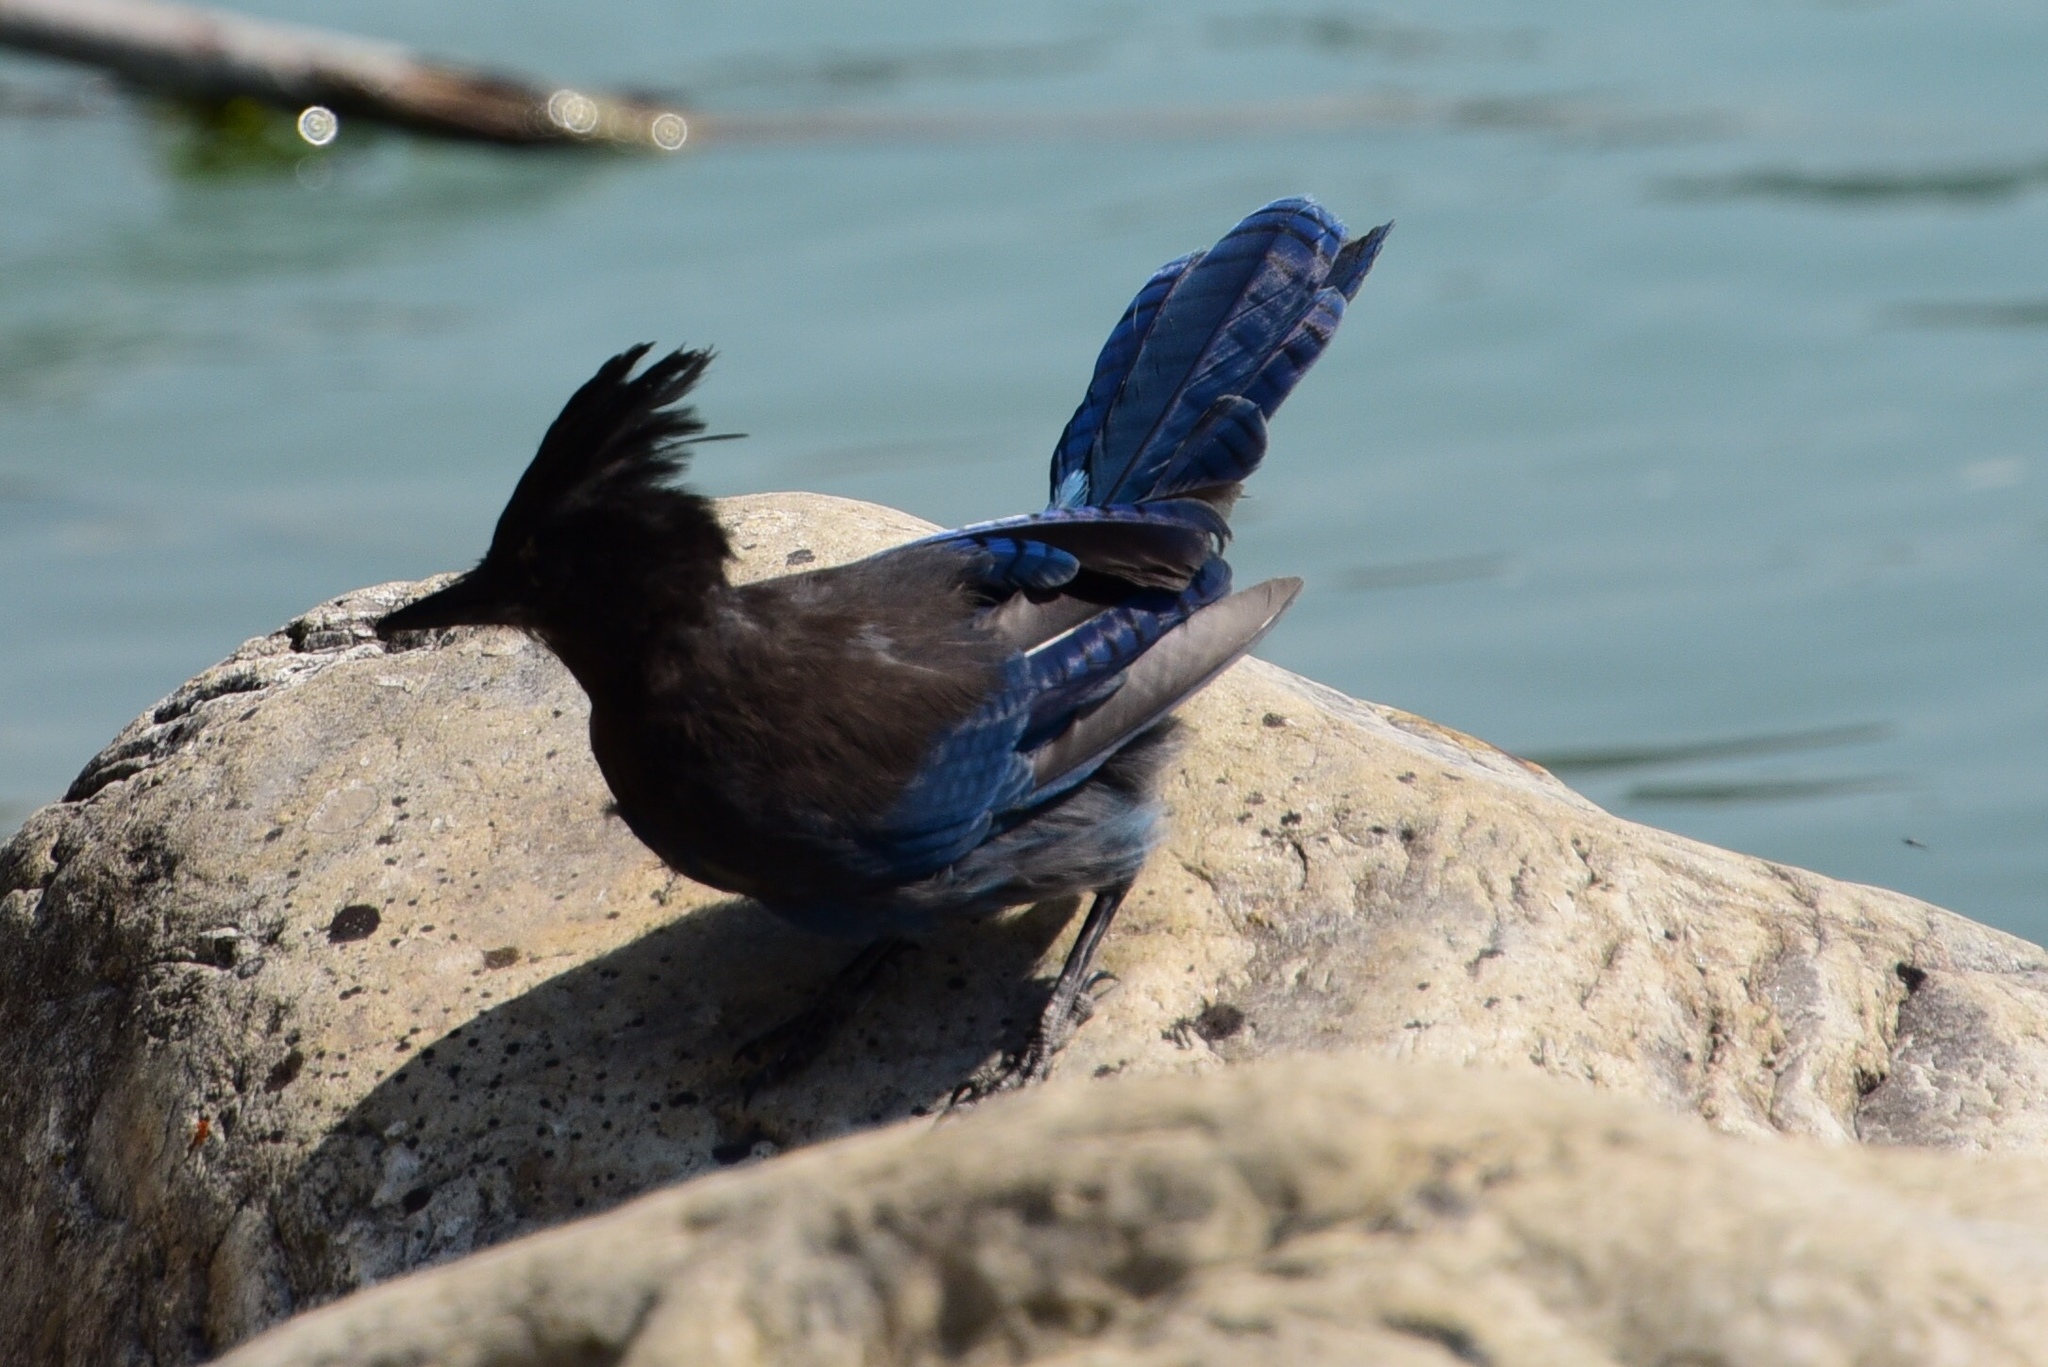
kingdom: Animalia
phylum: Chordata
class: Aves
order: Passeriformes
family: Corvidae
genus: Cyanocitta
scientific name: Cyanocitta stelleri
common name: Steller's jay
